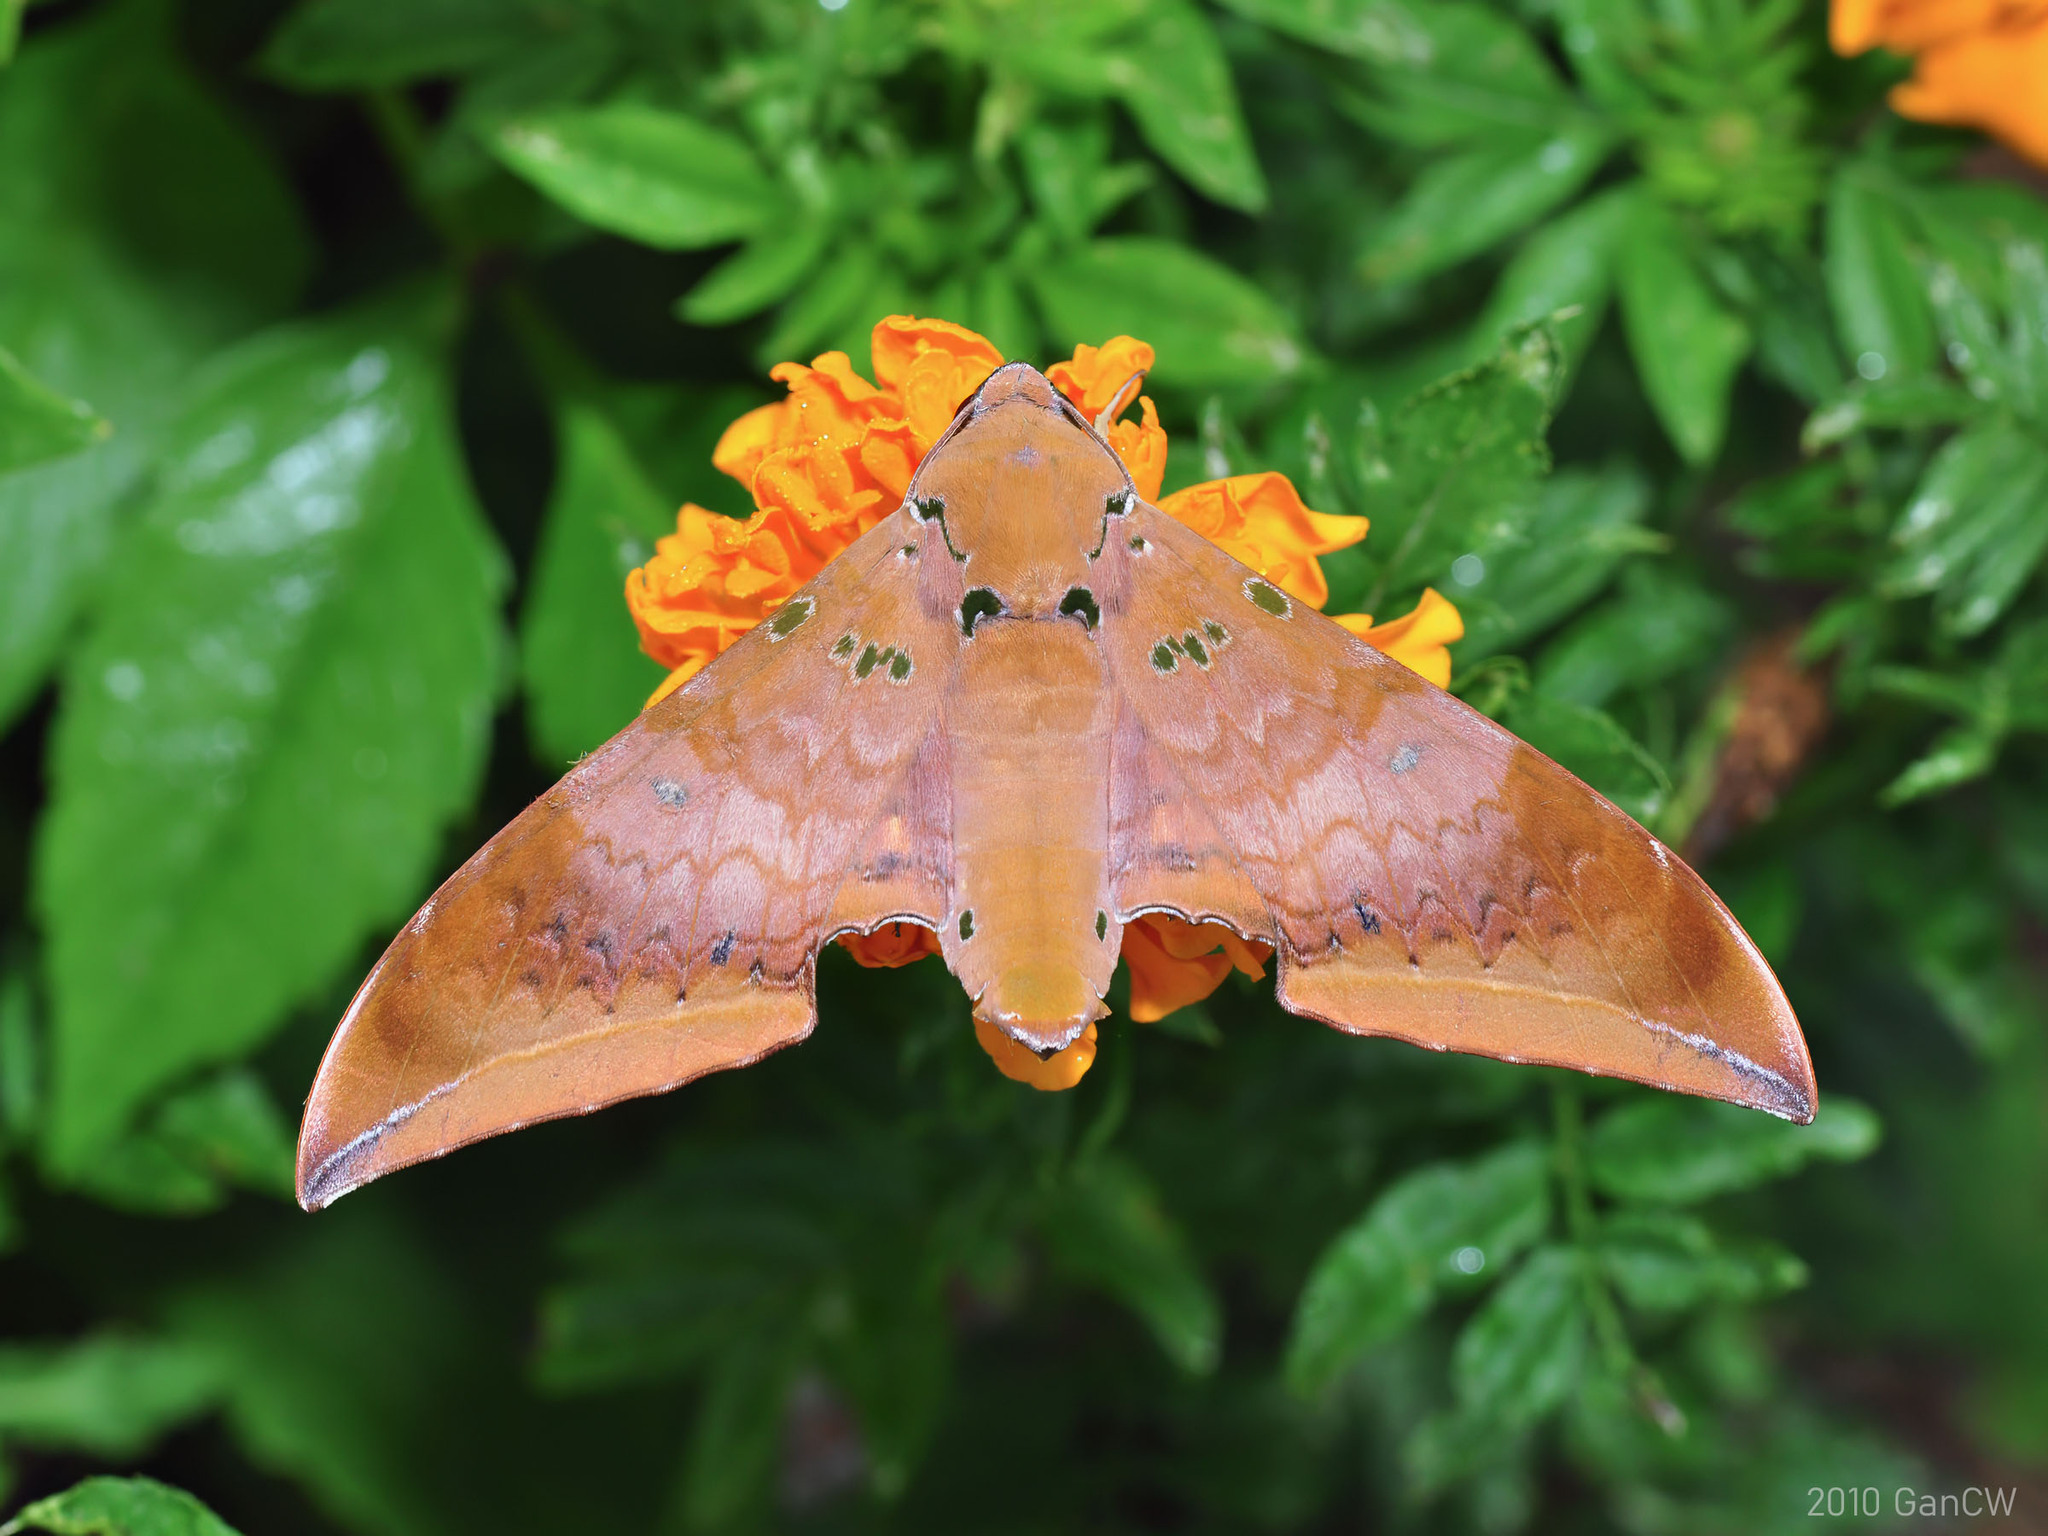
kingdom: Animalia
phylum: Arthropoda
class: Insecta
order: Lepidoptera
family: Sphingidae
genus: Ambulyx
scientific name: Ambulyx moorei
